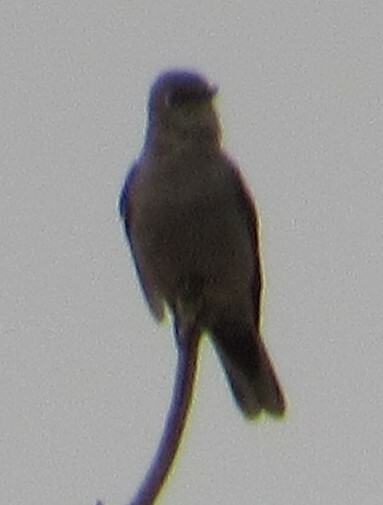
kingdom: Animalia
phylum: Chordata
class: Aves
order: Passeriformes
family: Turdidae
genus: Myadestes
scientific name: Myadestes townsendi
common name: Townsend's solitaire
